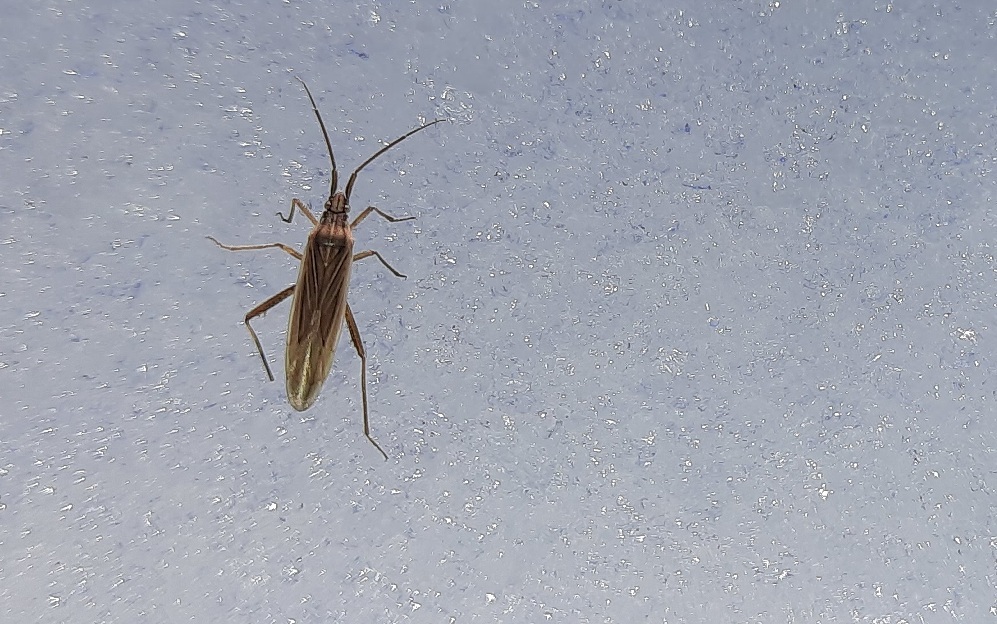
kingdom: Animalia
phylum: Arthropoda
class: Insecta
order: Hemiptera
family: Miridae
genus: Stenodema
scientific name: Stenodema calcarata
